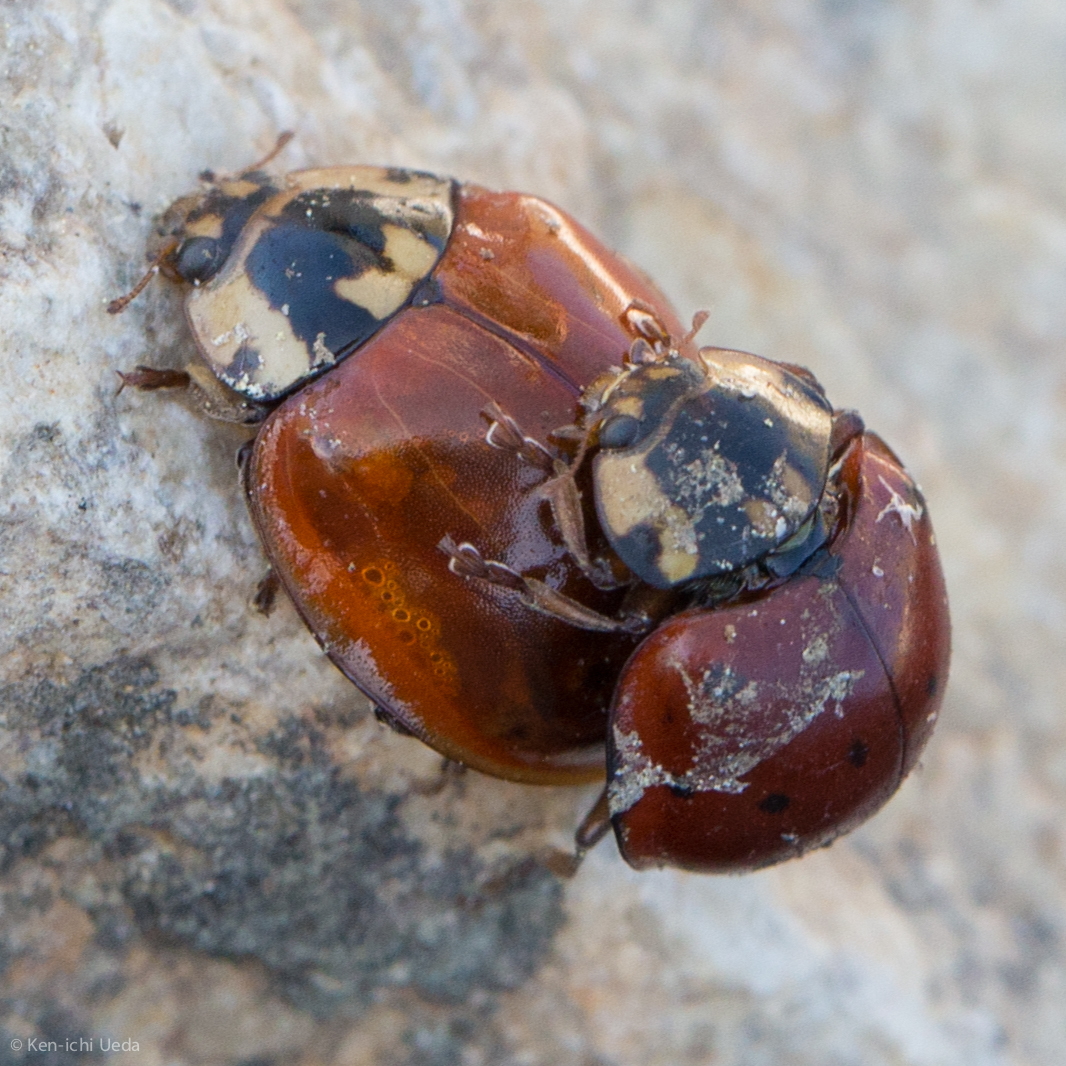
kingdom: Animalia
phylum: Arthropoda
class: Insecta
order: Coleoptera
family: Coccinellidae
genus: Anatis
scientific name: Anatis rathvoni
